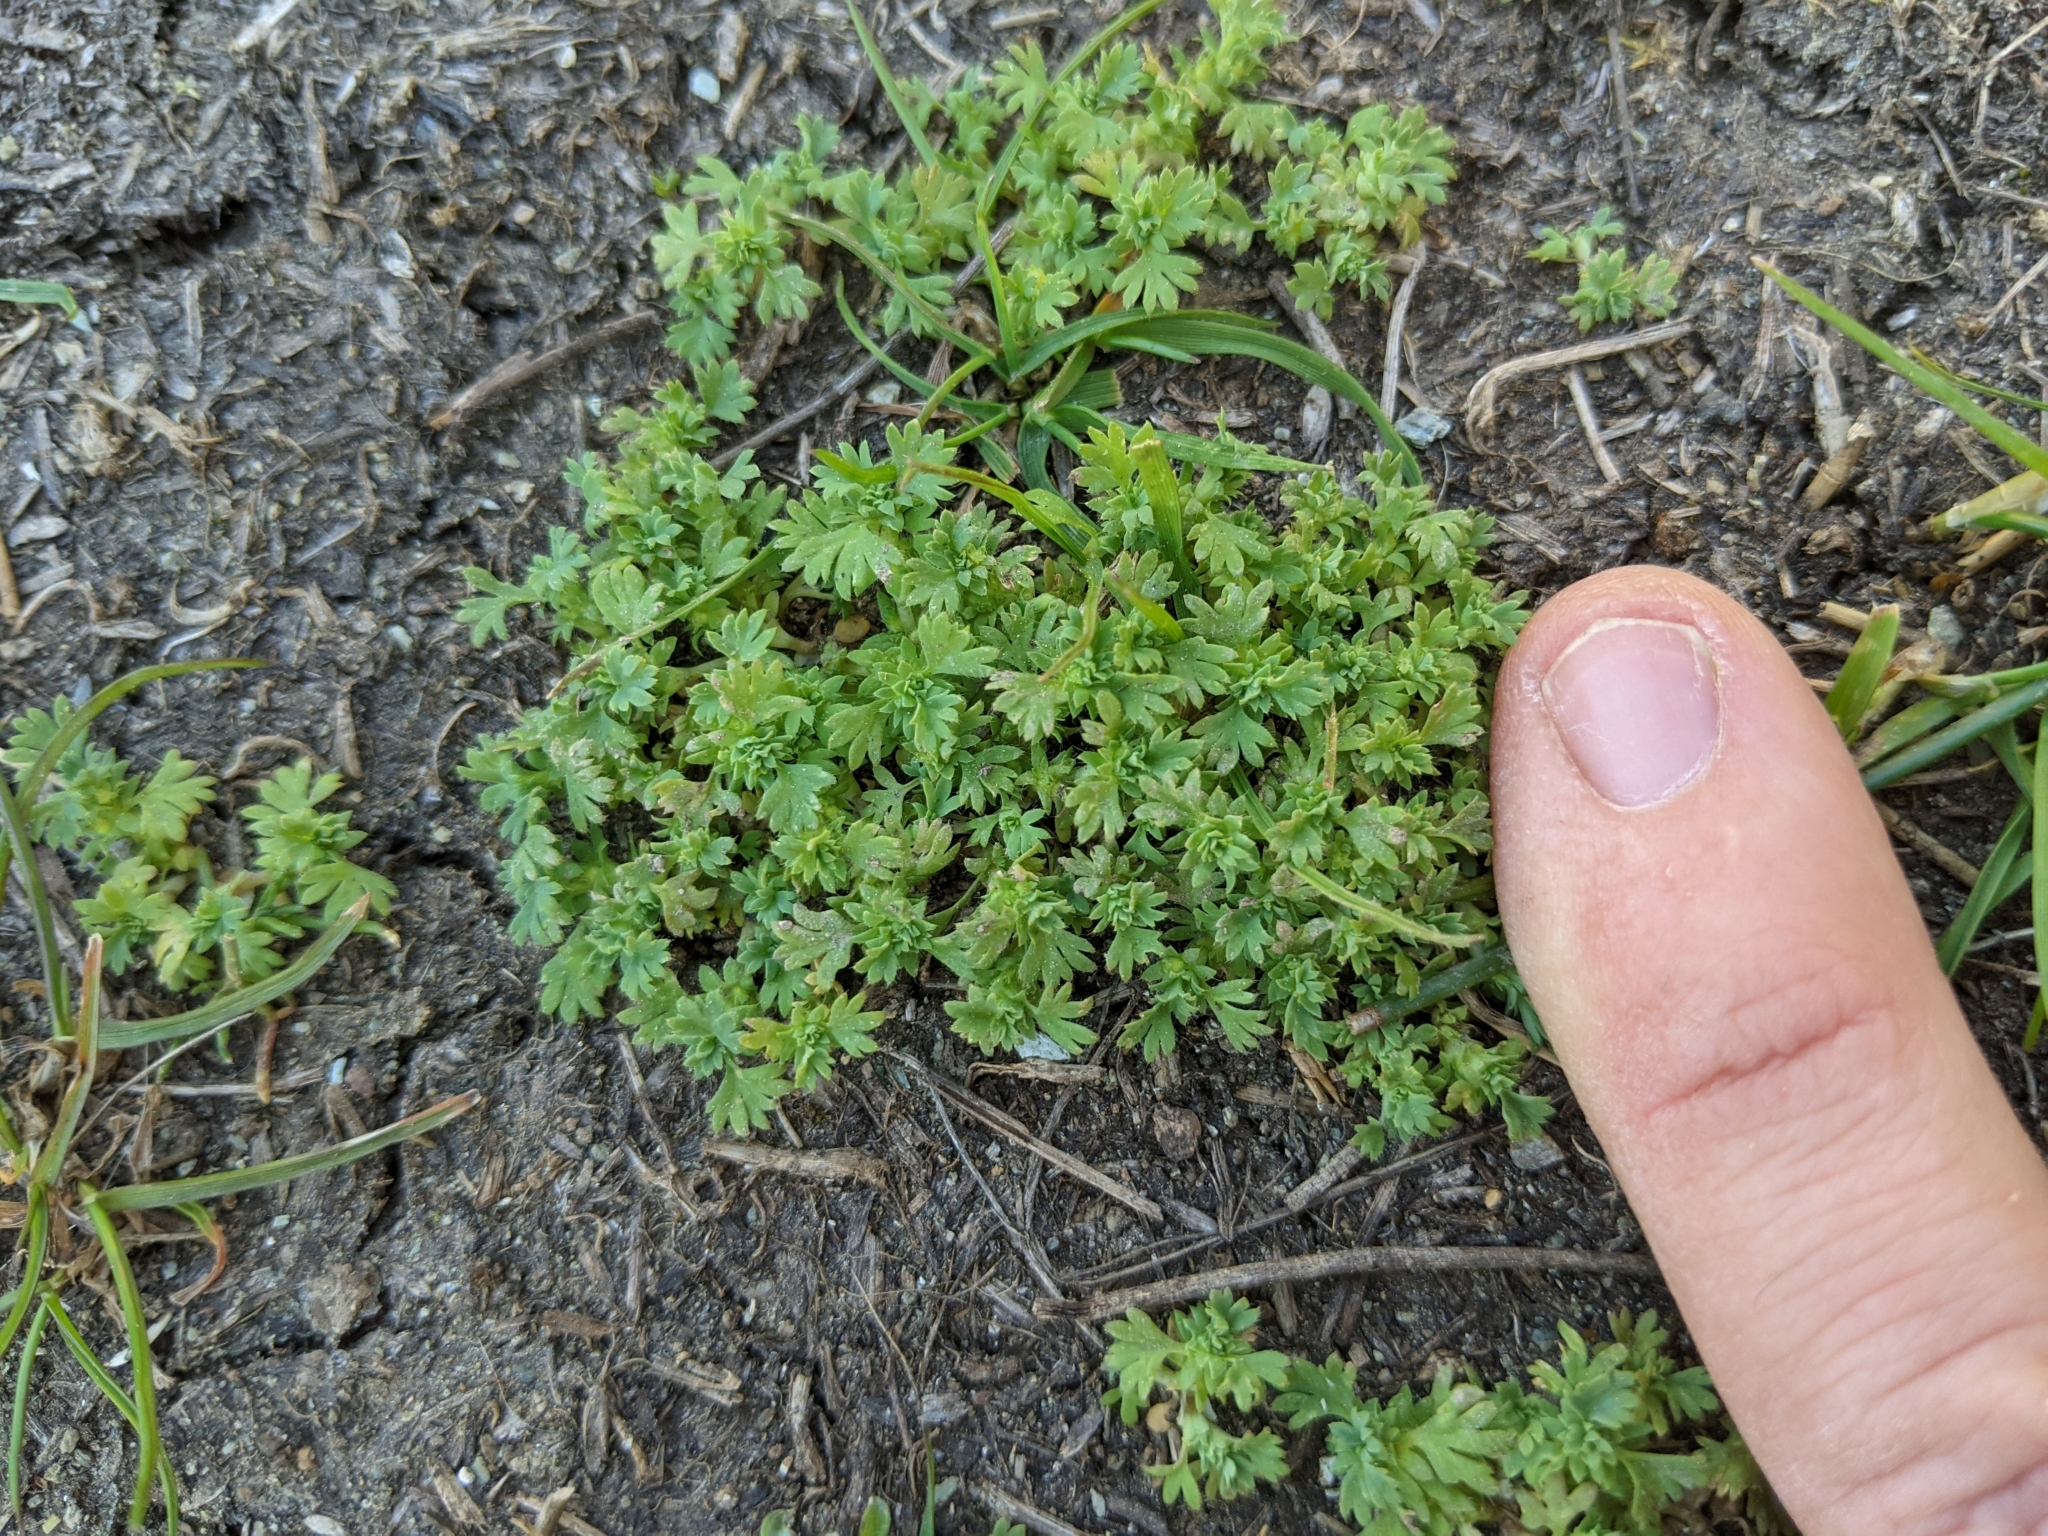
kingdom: Plantae
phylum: Tracheophyta
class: Magnoliopsida
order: Rosales
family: Rosaceae
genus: Aphanes
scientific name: Aphanes arvensis
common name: Parsley-piert
